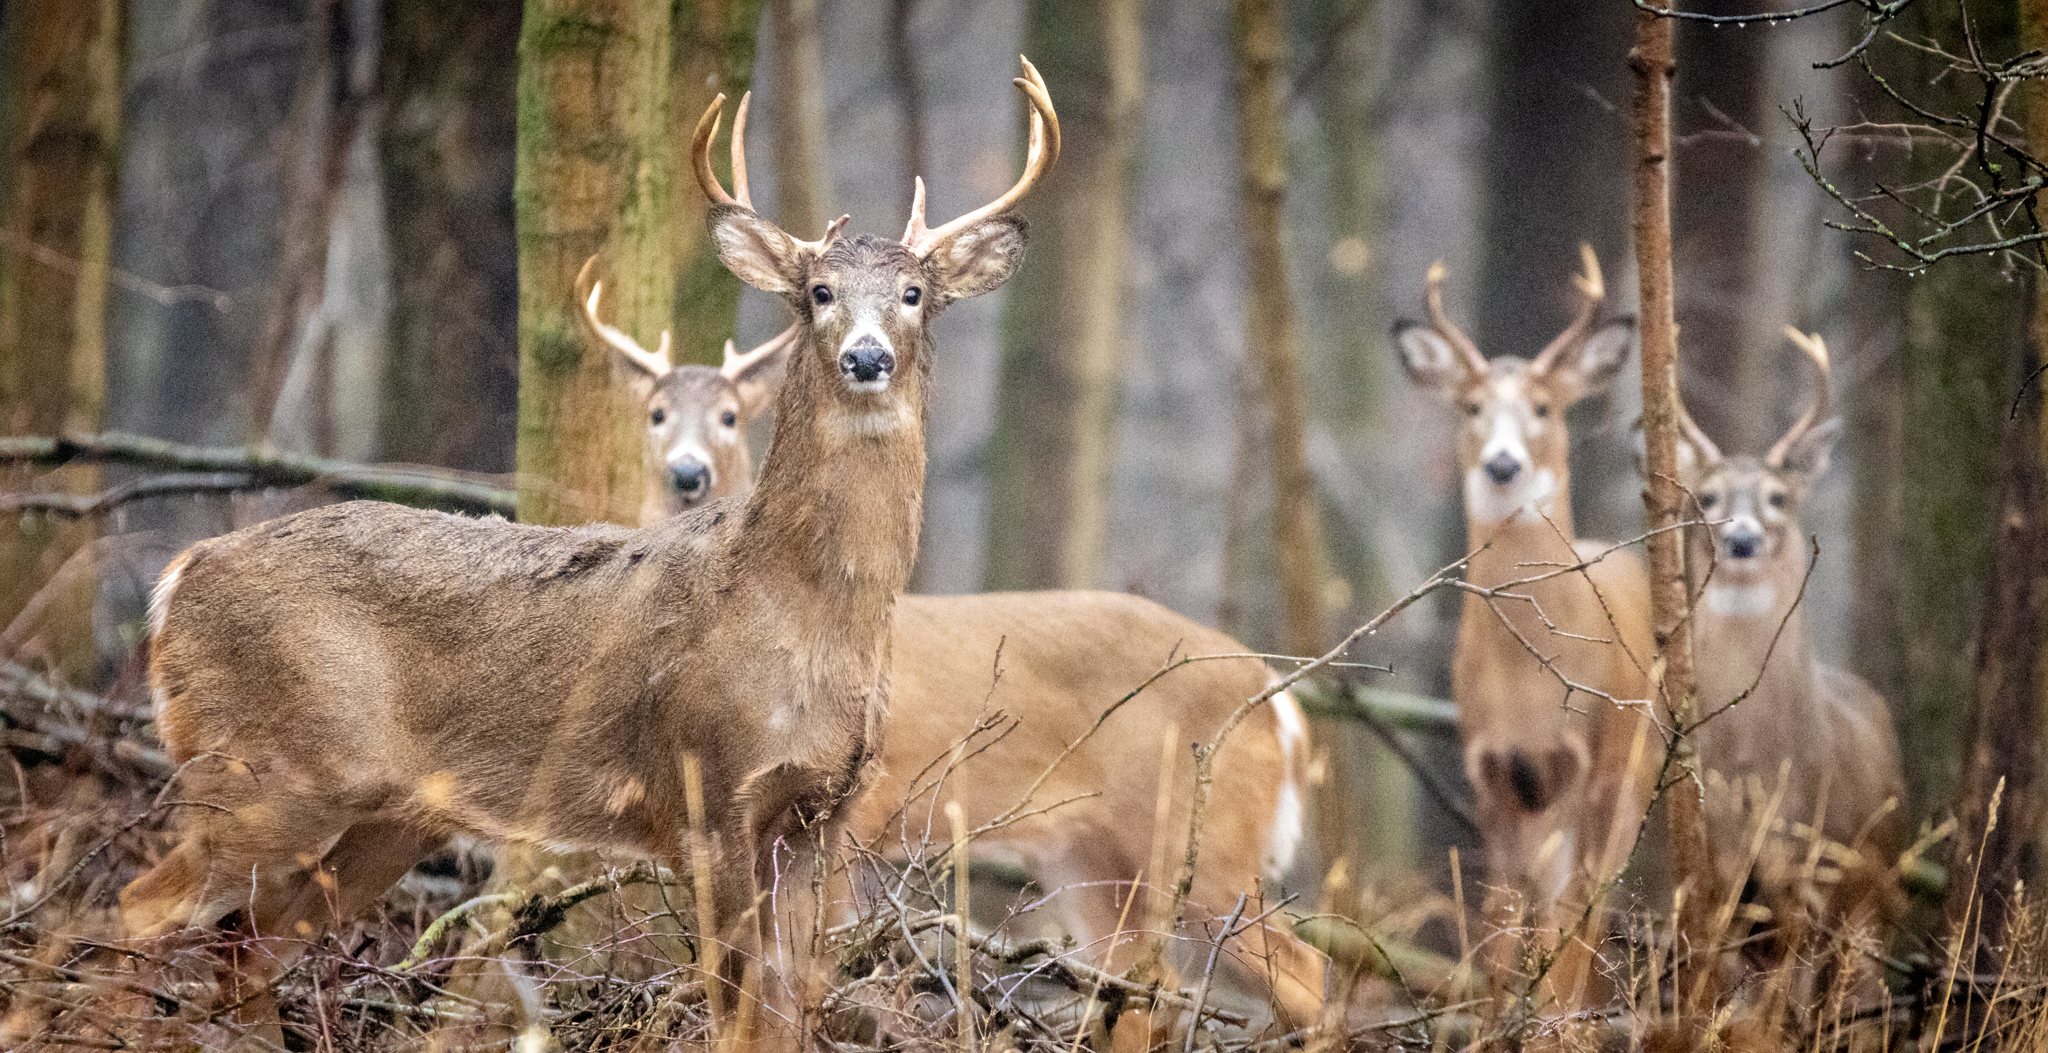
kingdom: Animalia
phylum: Chordata
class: Mammalia
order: Artiodactyla
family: Cervidae
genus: Odocoileus
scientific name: Odocoileus virginianus
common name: White-tailed deer
